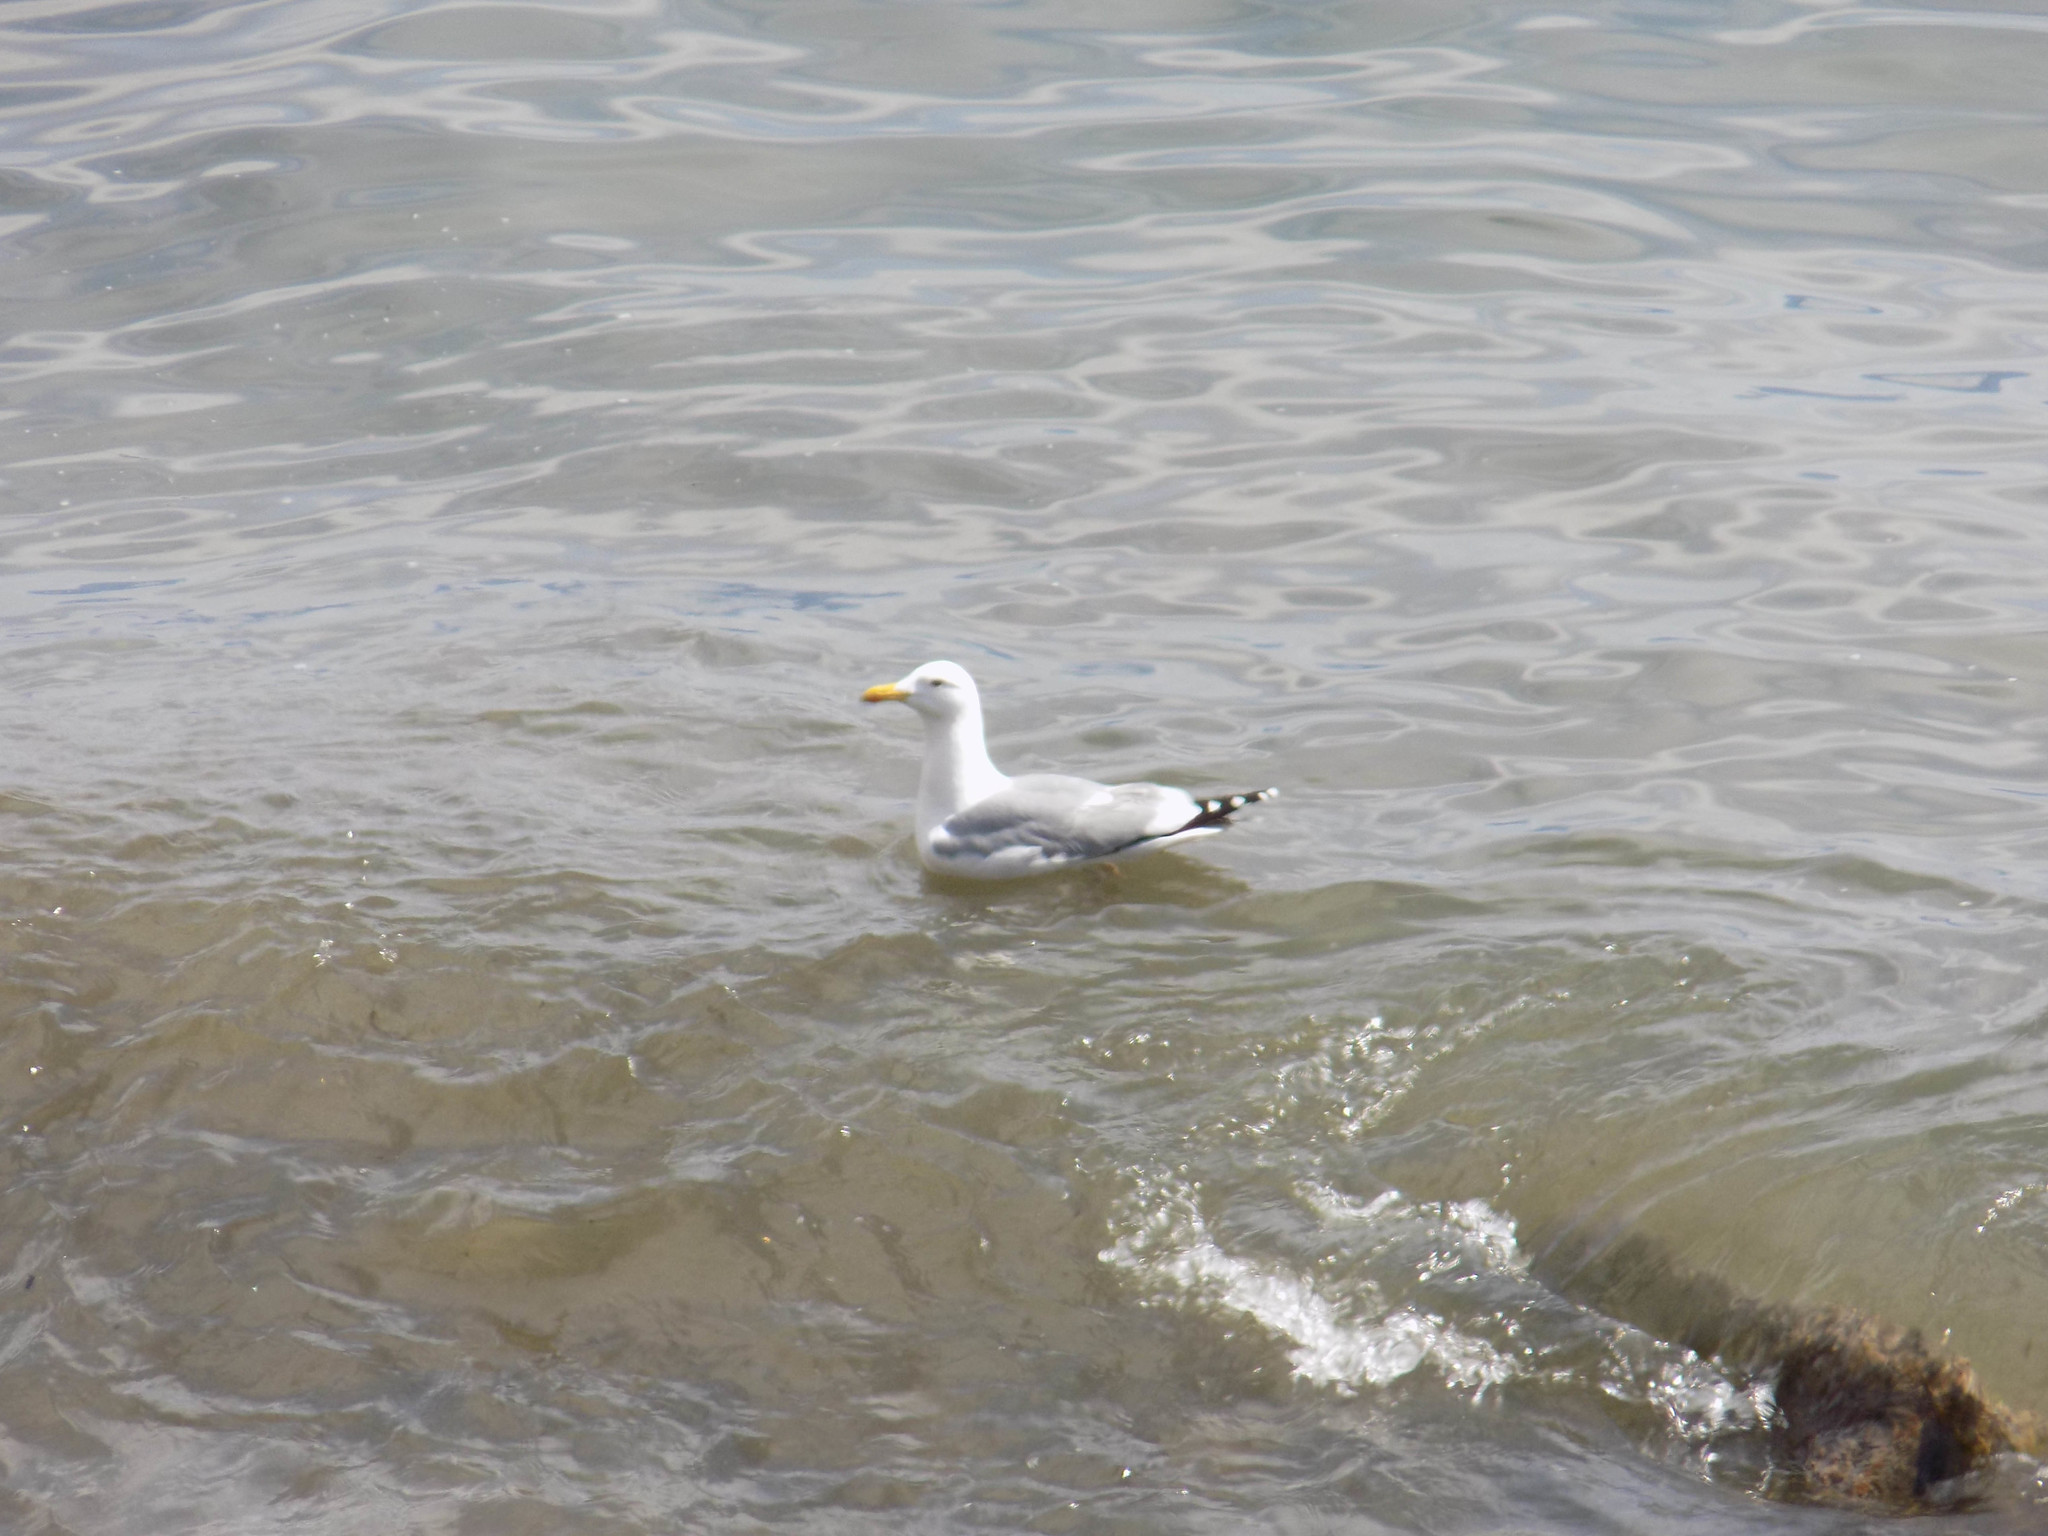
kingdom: Animalia
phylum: Chordata
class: Aves
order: Charadriiformes
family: Laridae
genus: Larus
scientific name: Larus vegae
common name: Vega gull
